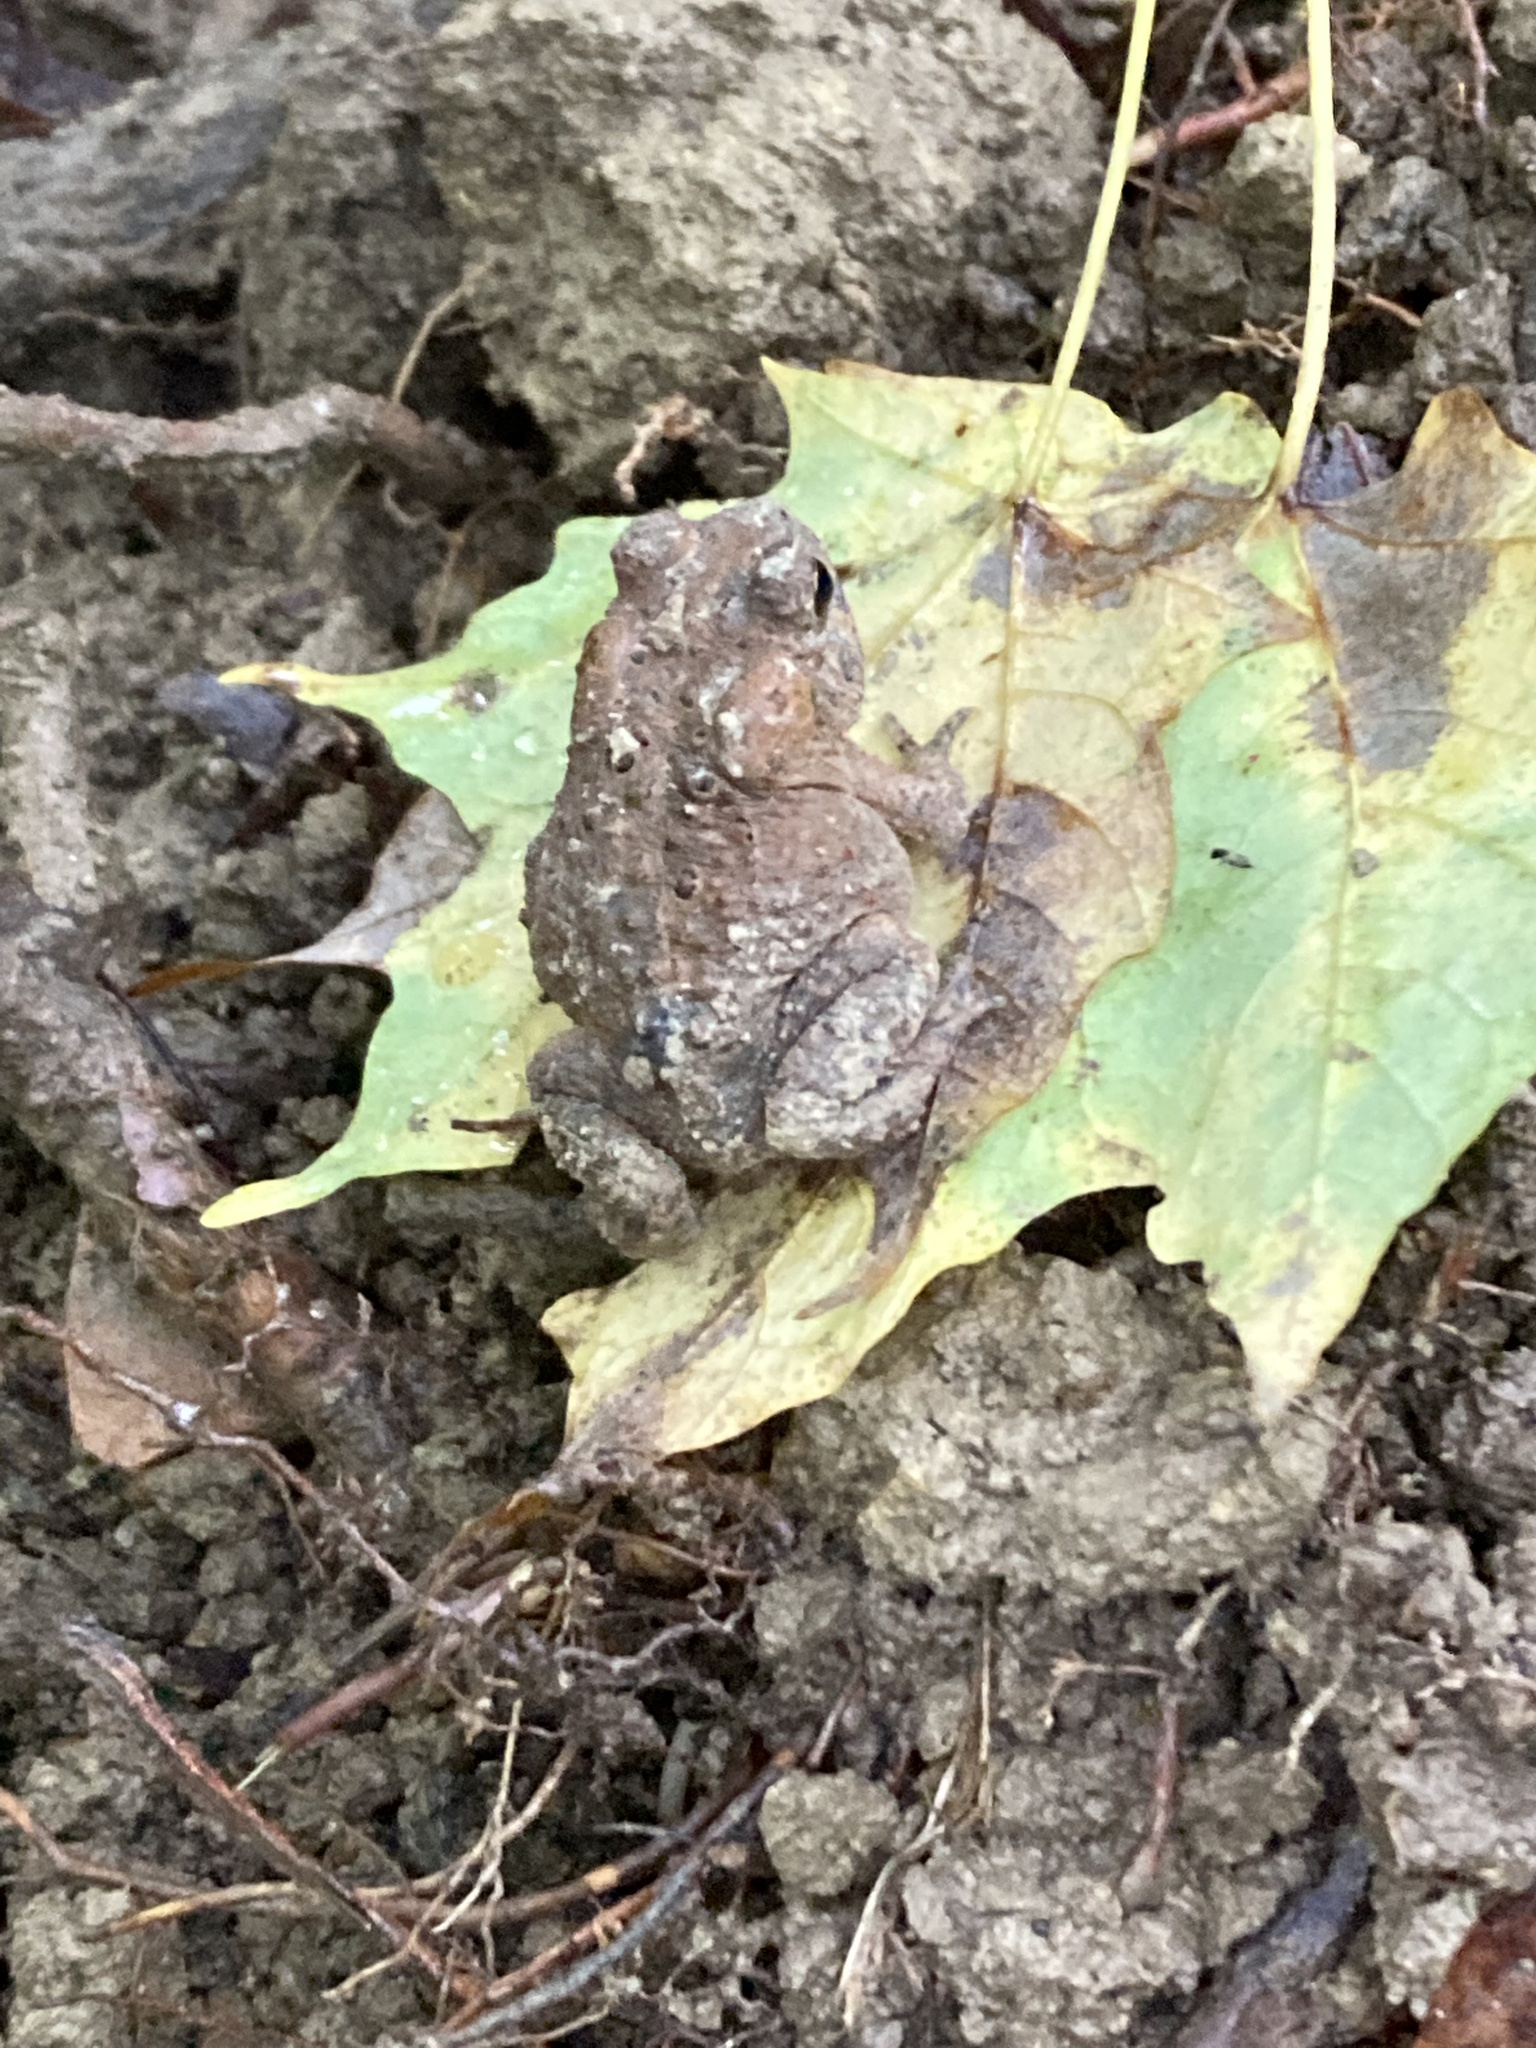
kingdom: Animalia
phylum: Chordata
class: Amphibia
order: Anura
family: Bufonidae
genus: Anaxyrus
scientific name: Anaxyrus americanus
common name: American toad
